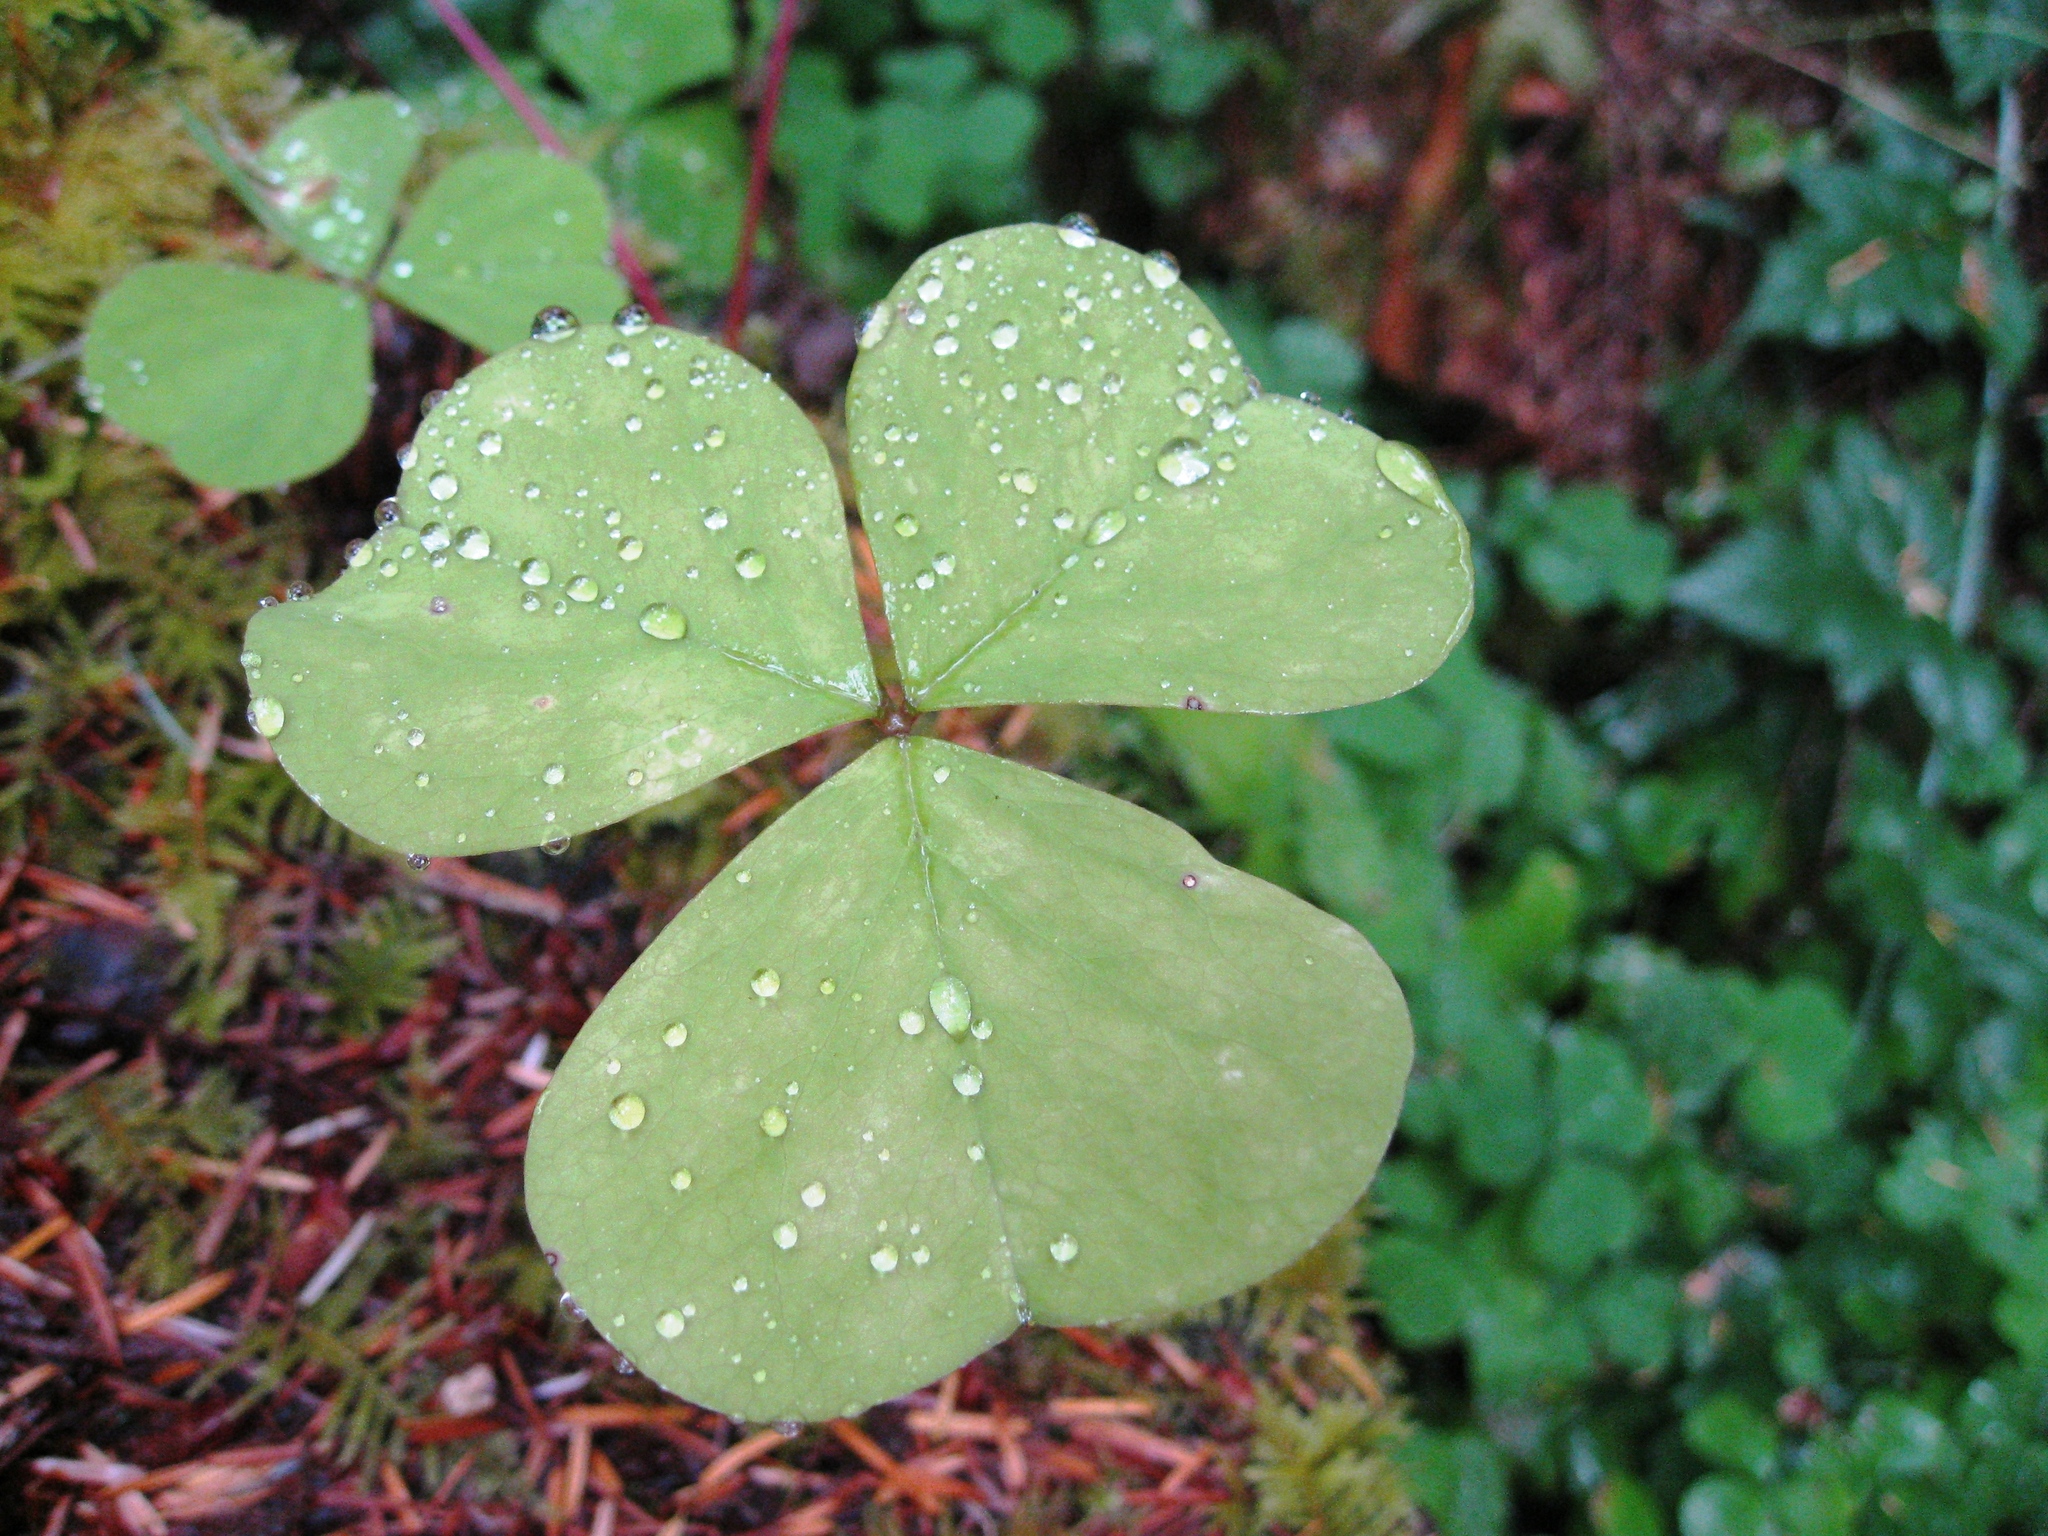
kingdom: Plantae
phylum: Tracheophyta
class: Magnoliopsida
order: Oxalidales
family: Oxalidaceae
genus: Oxalis
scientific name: Oxalis oregana
